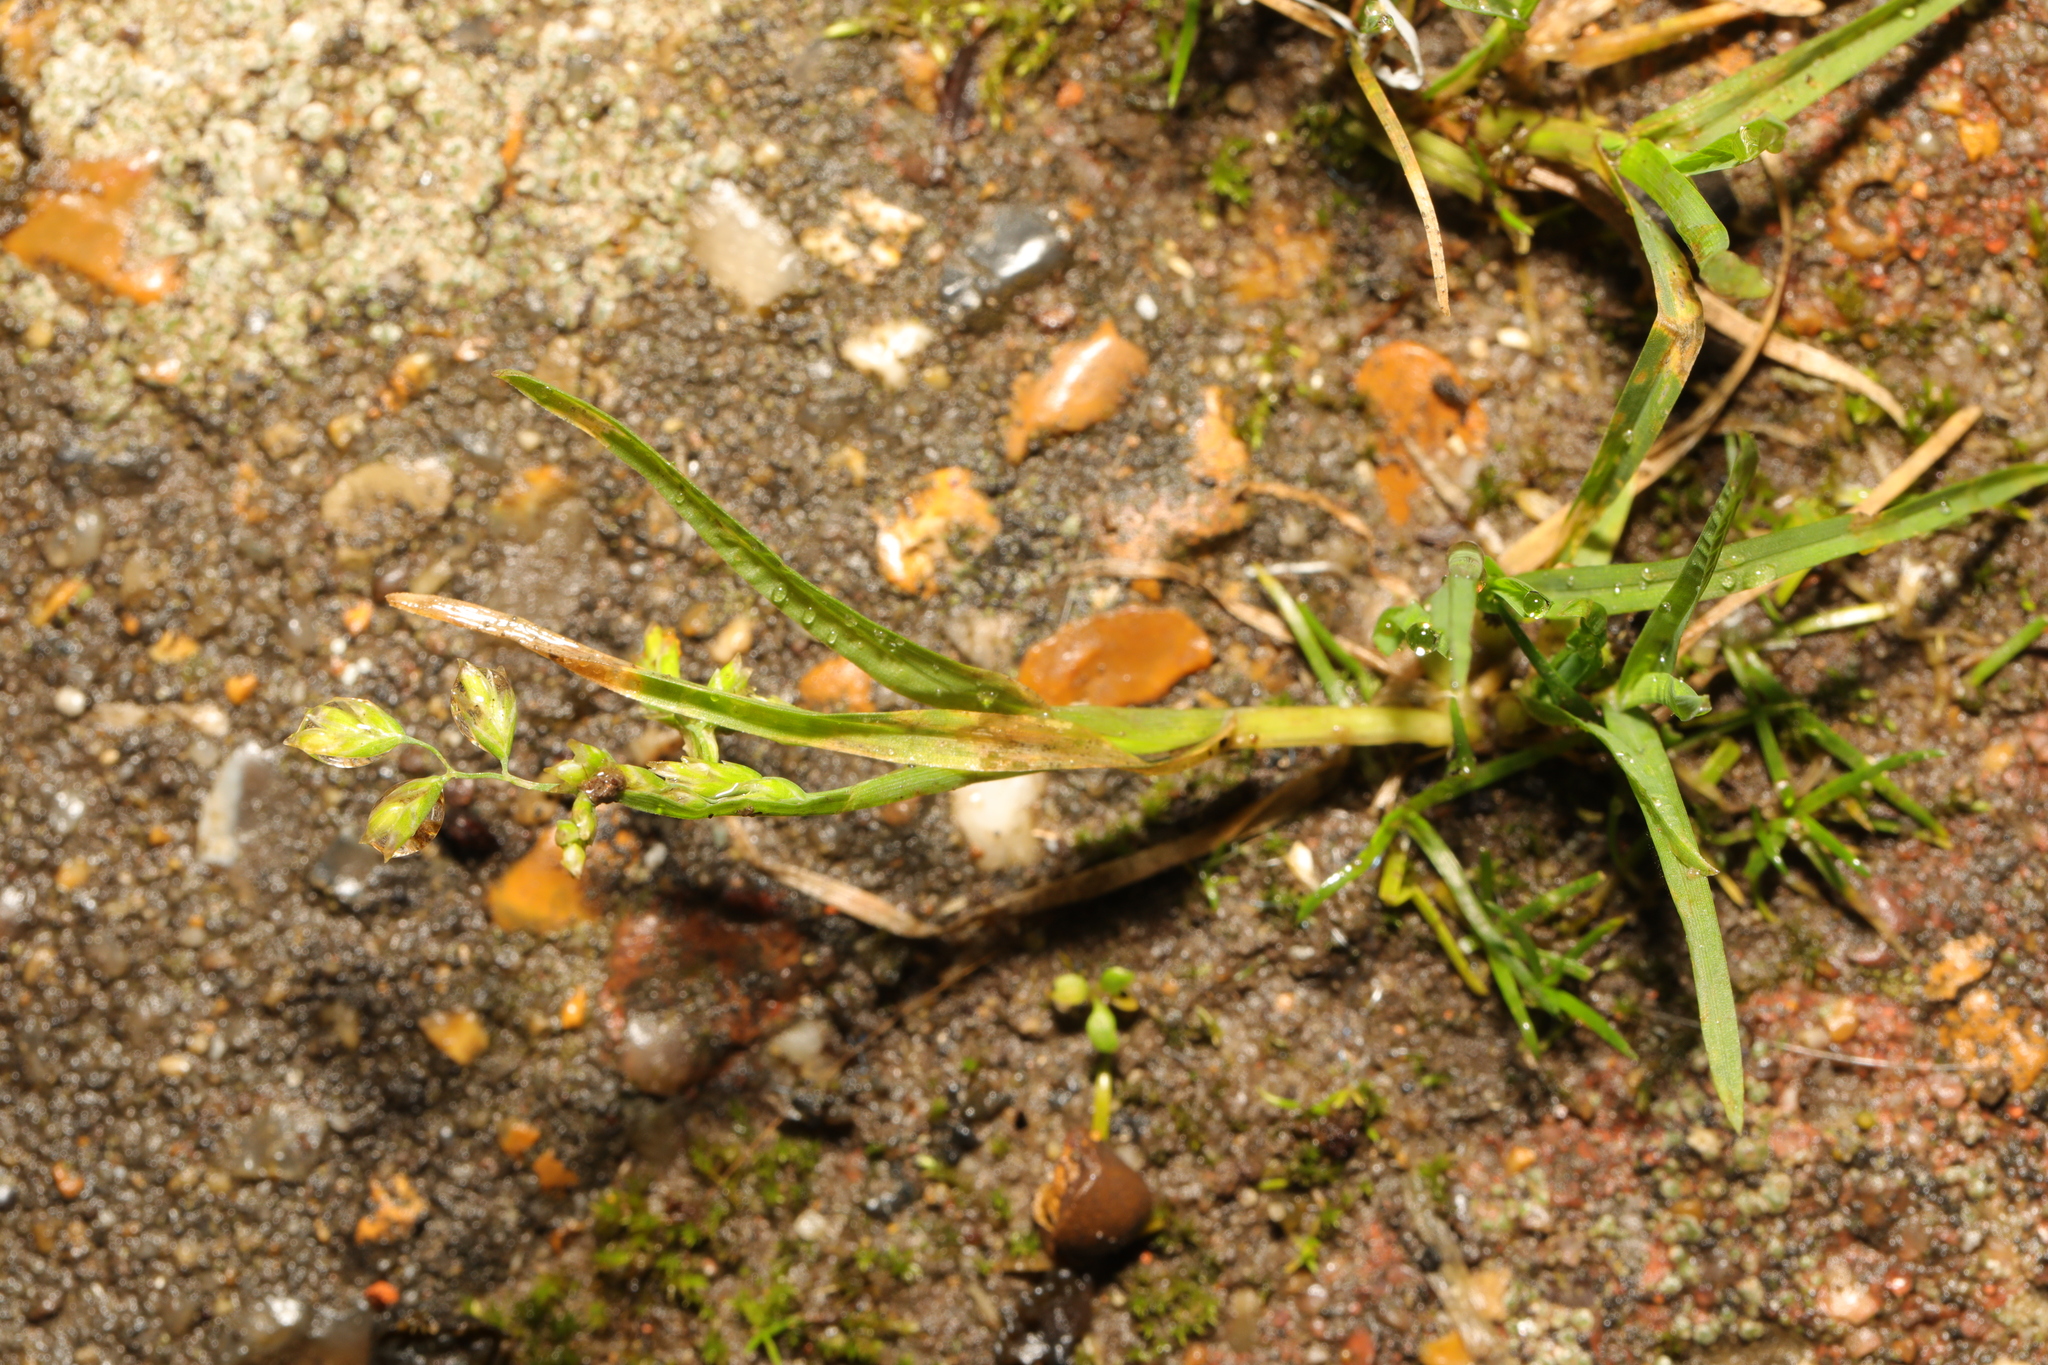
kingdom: Plantae
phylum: Tracheophyta
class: Liliopsida
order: Poales
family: Poaceae
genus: Poa
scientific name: Poa annua
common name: Annual bluegrass
